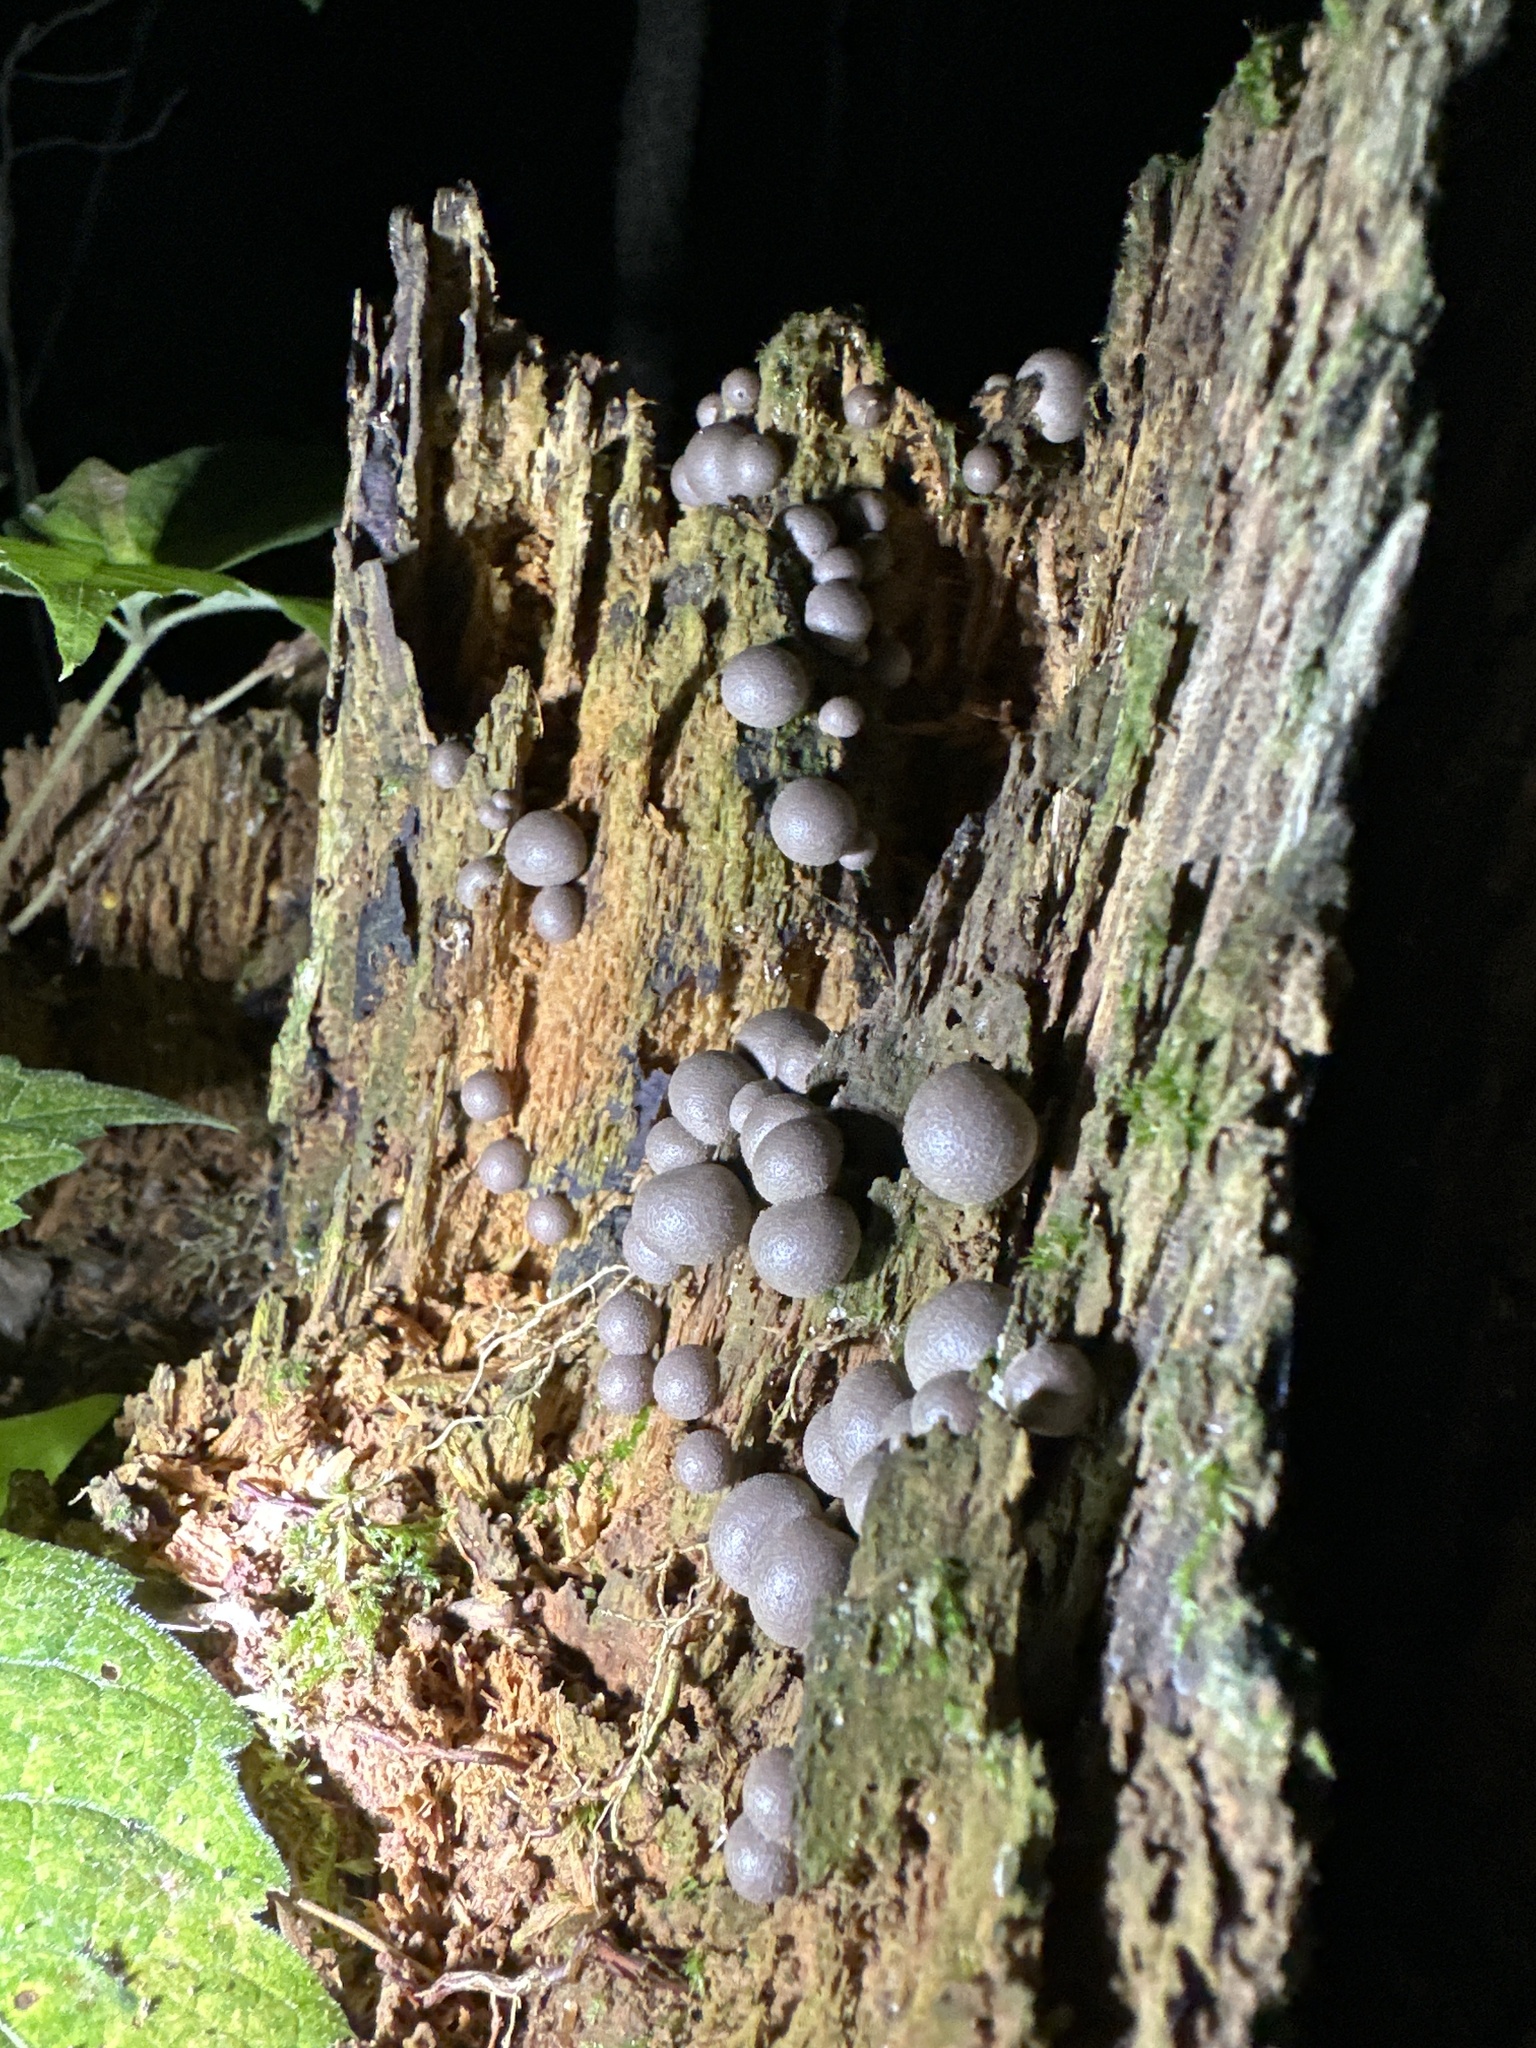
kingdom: Protozoa
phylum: Mycetozoa
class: Myxomycetes
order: Cribrariales
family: Tubiferaceae
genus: Lycogala
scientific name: Lycogala epidendrum
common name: Wolf's milk
